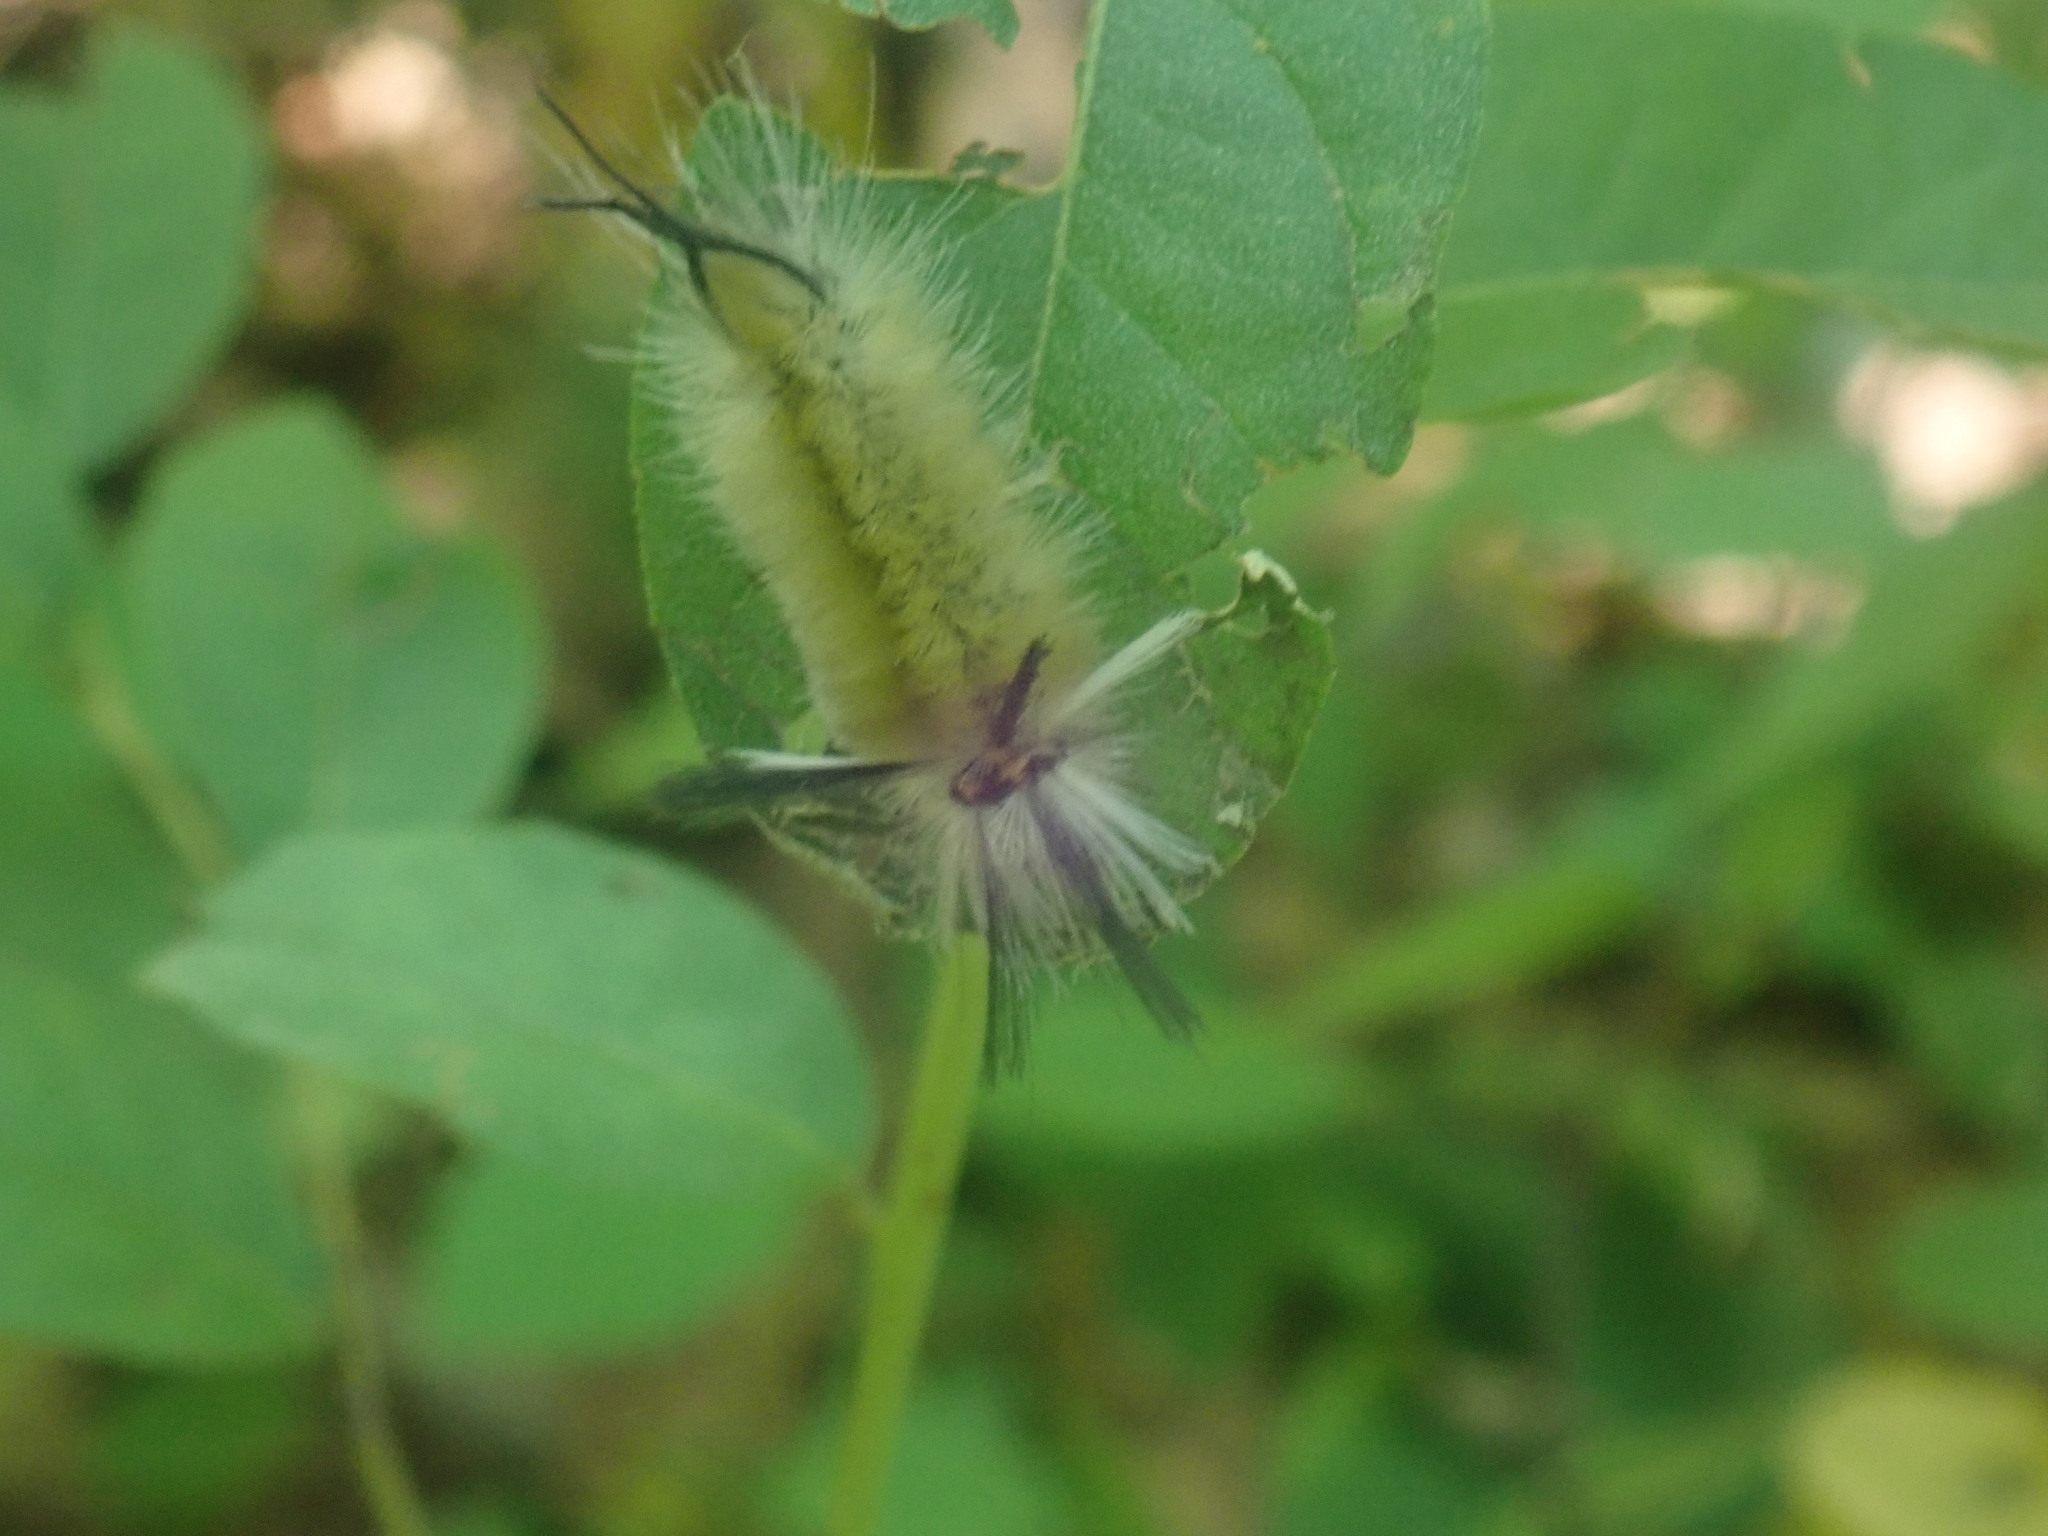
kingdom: Animalia
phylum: Arthropoda
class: Insecta
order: Lepidoptera
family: Erebidae
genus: Halysidota
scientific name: Halysidota tessellaris
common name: Banded tussock moth
